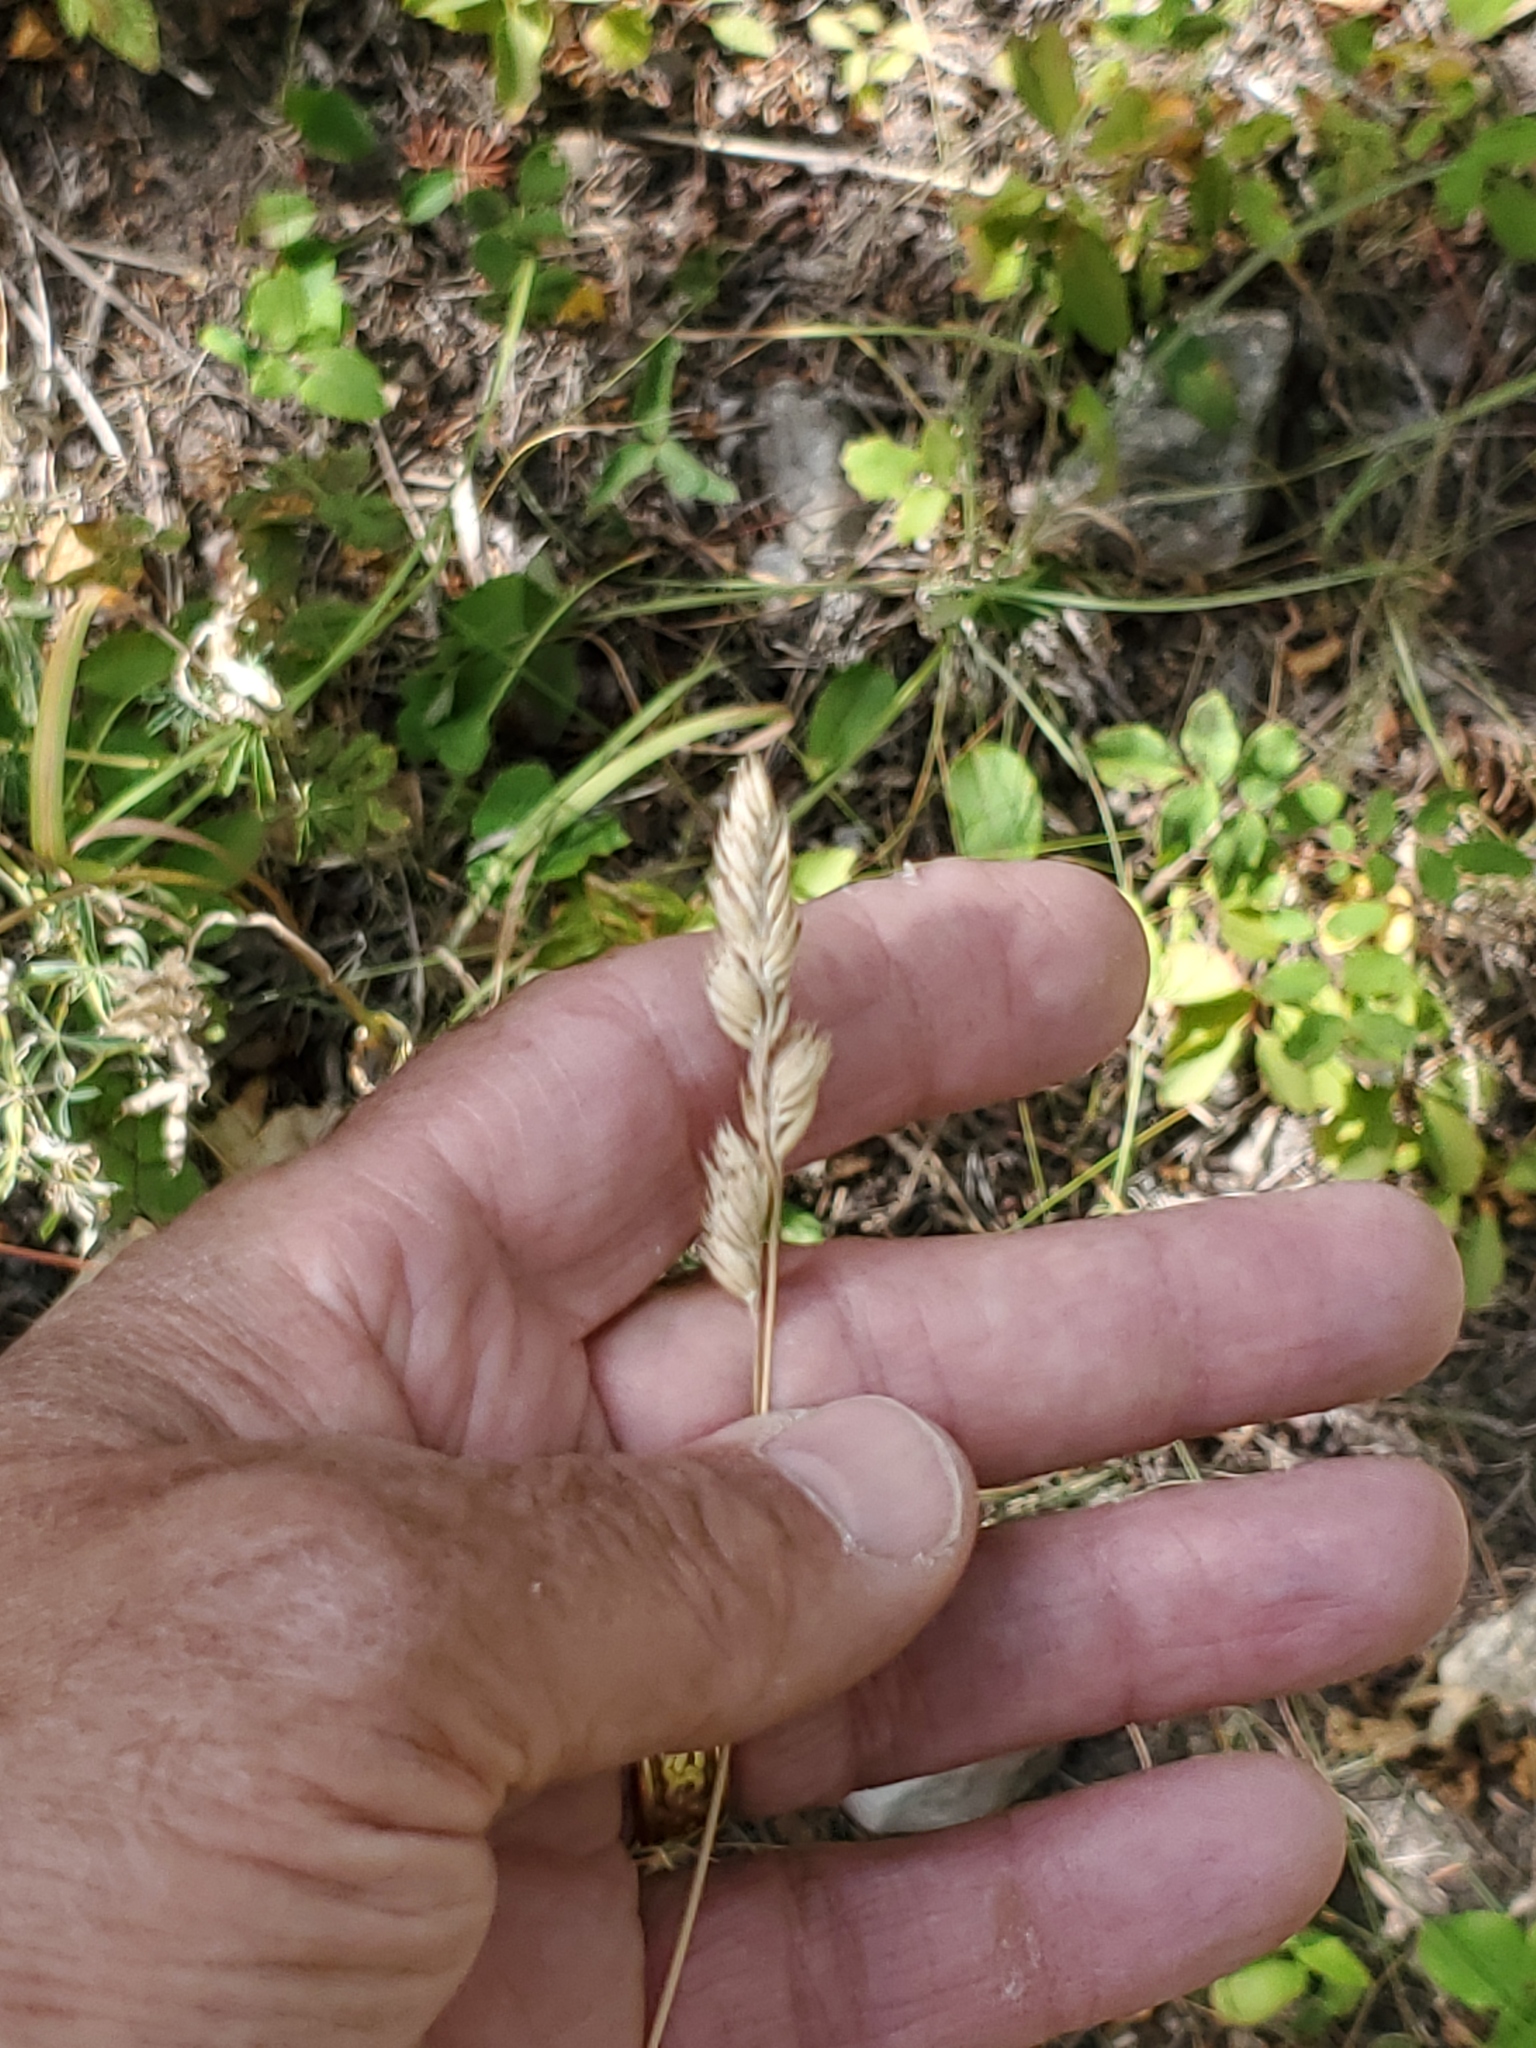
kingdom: Plantae
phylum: Tracheophyta
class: Liliopsida
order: Poales
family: Poaceae
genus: Dactylis
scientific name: Dactylis glomerata
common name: Orchardgrass
